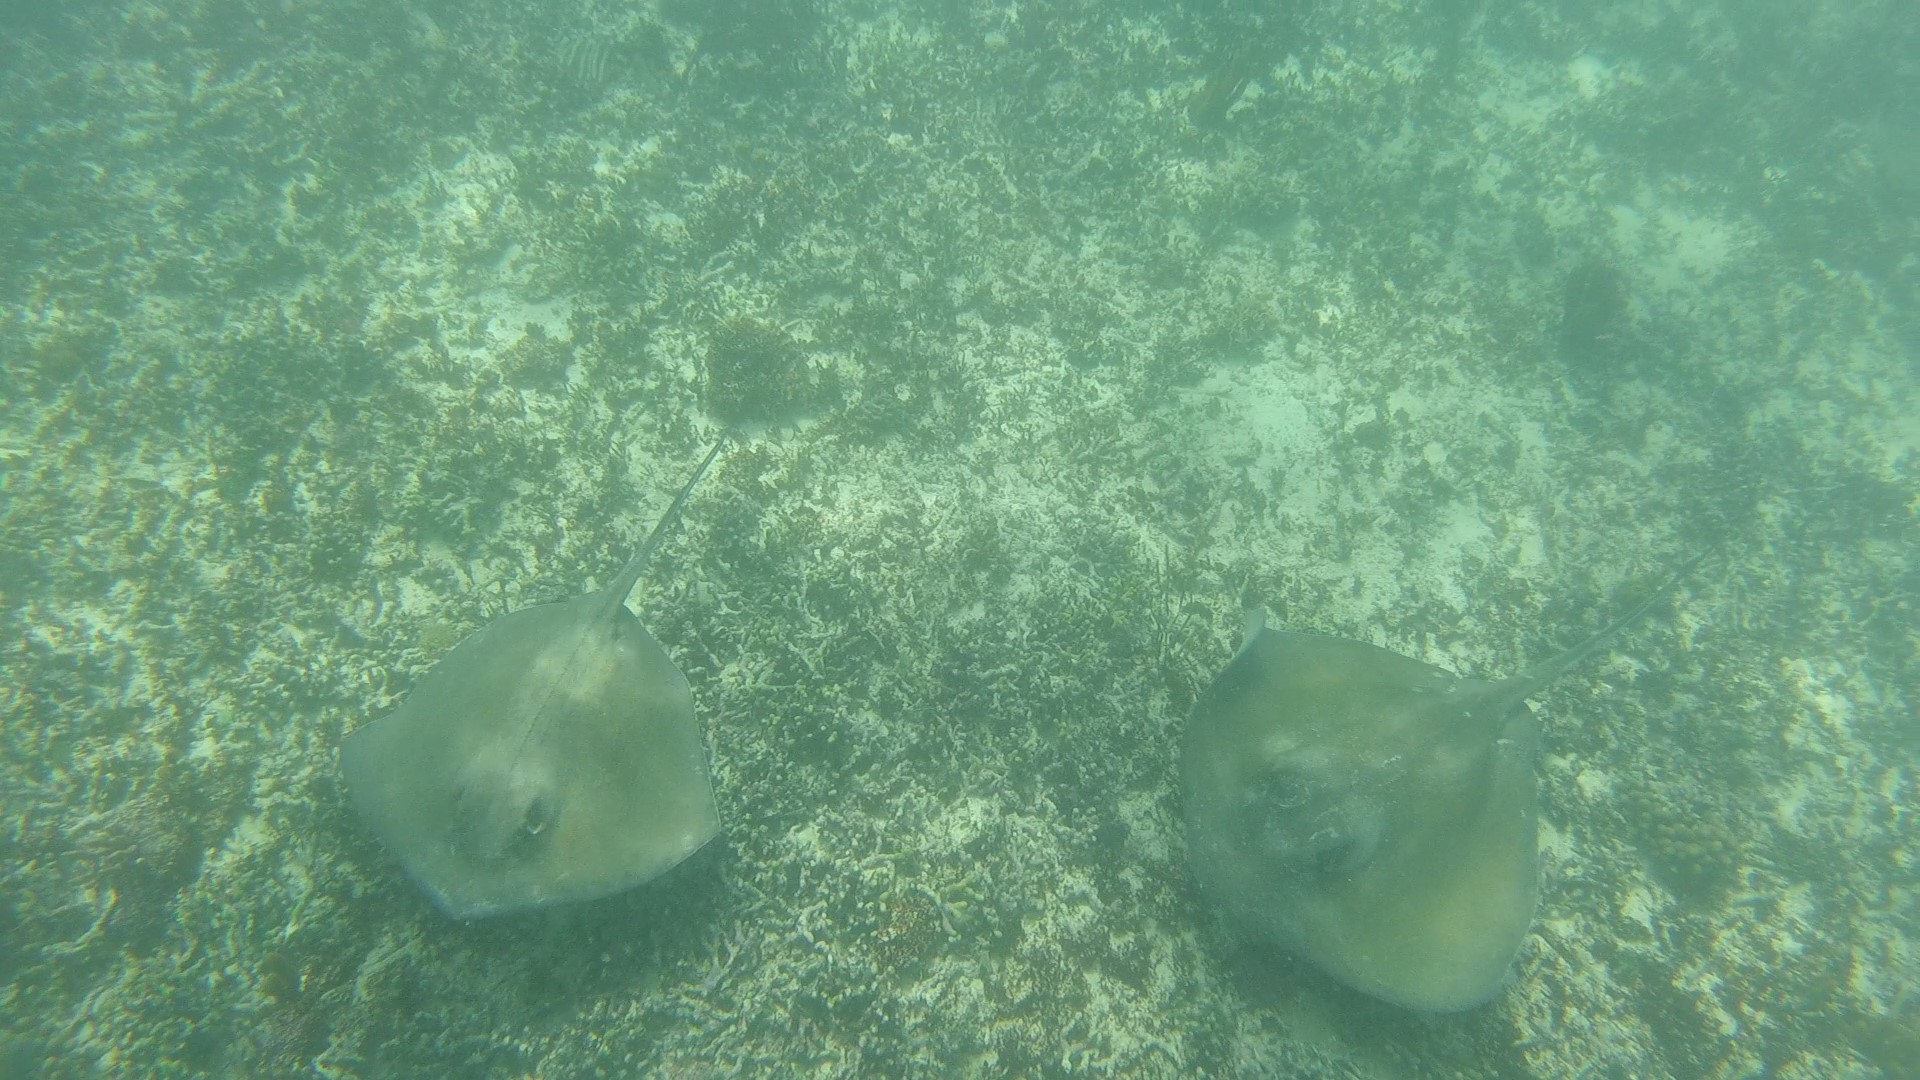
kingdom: Animalia
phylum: Chordata
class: Elasmobranchii
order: Myliobatiformes
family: Dasyatidae
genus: Hypanus
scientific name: Hypanus americanus
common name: Southern stingray
